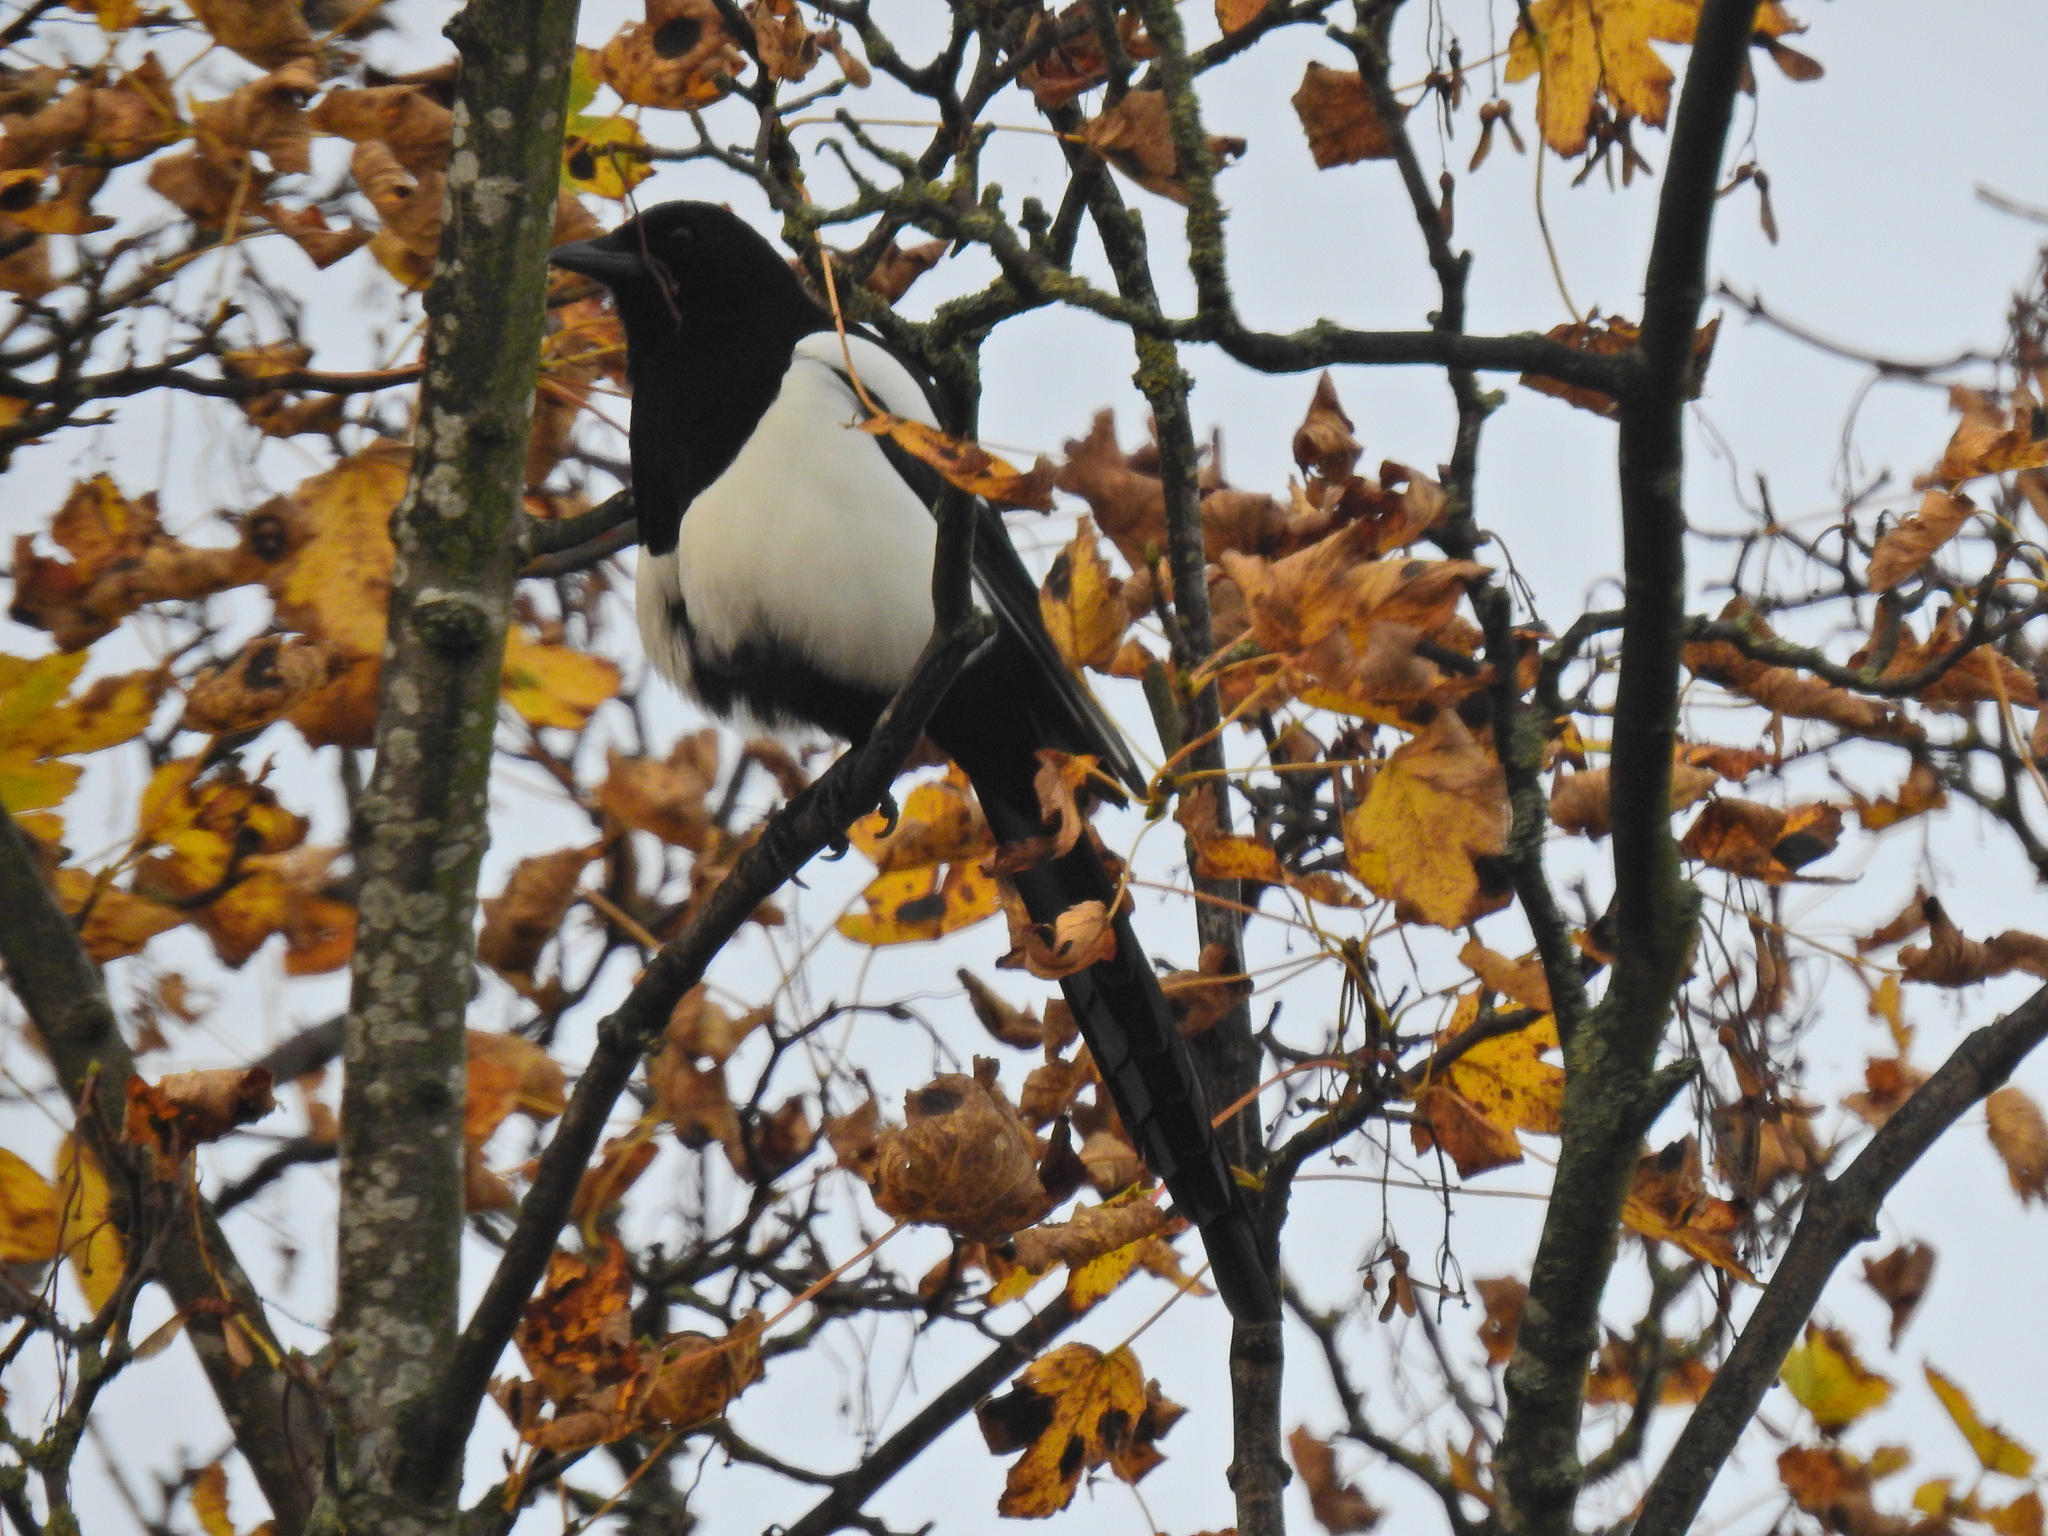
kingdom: Animalia
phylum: Chordata
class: Aves
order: Passeriformes
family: Corvidae
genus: Pica
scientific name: Pica pica
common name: Eurasian magpie
